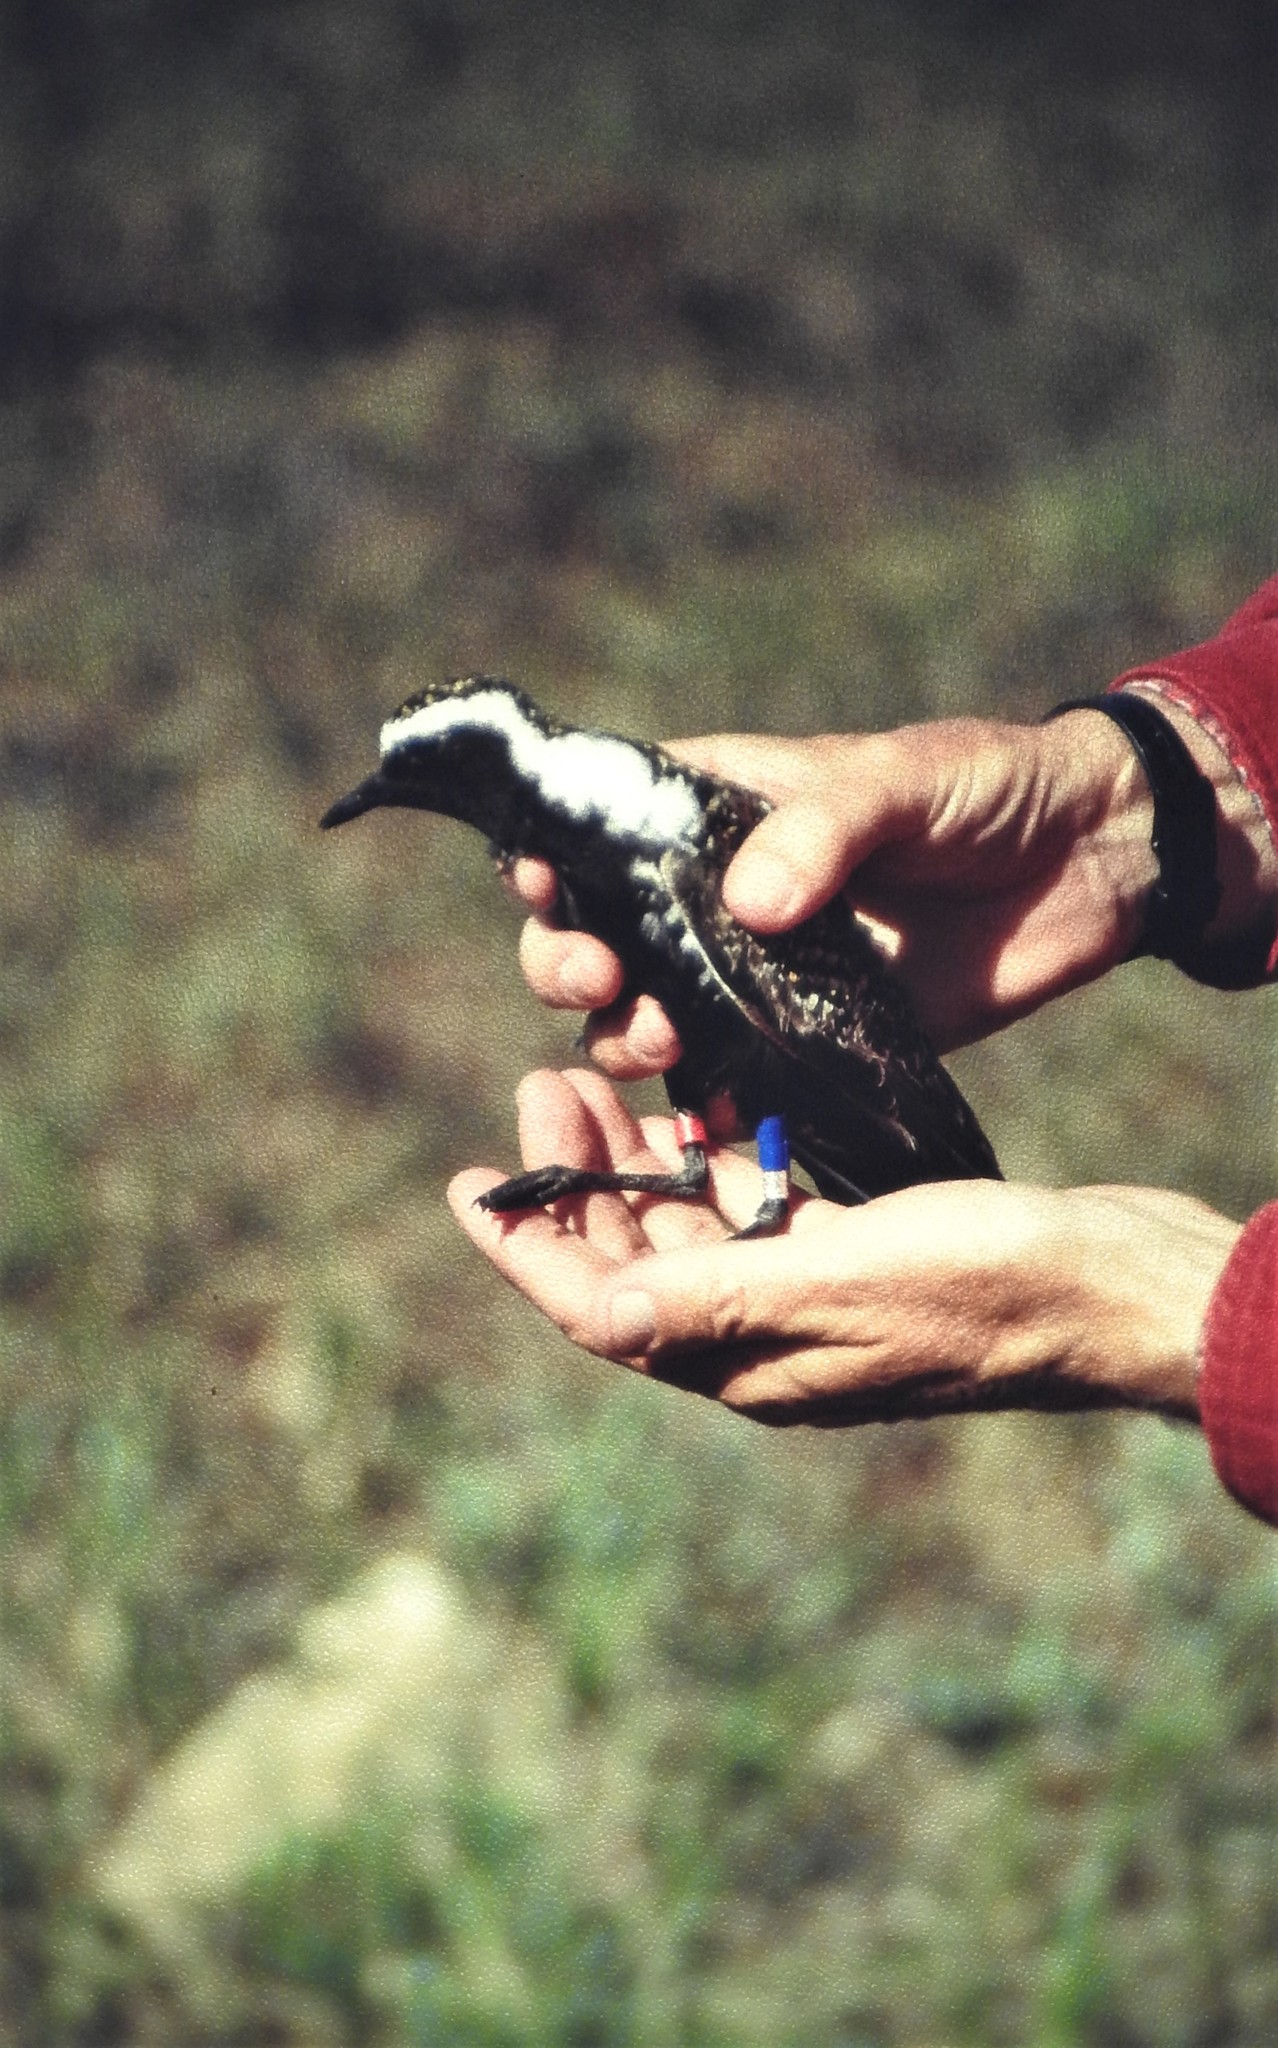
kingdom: Animalia
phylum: Chordata
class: Aves
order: Charadriiformes
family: Charadriidae
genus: Pluvialis
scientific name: Pluvialis dominica
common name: American golden plover
